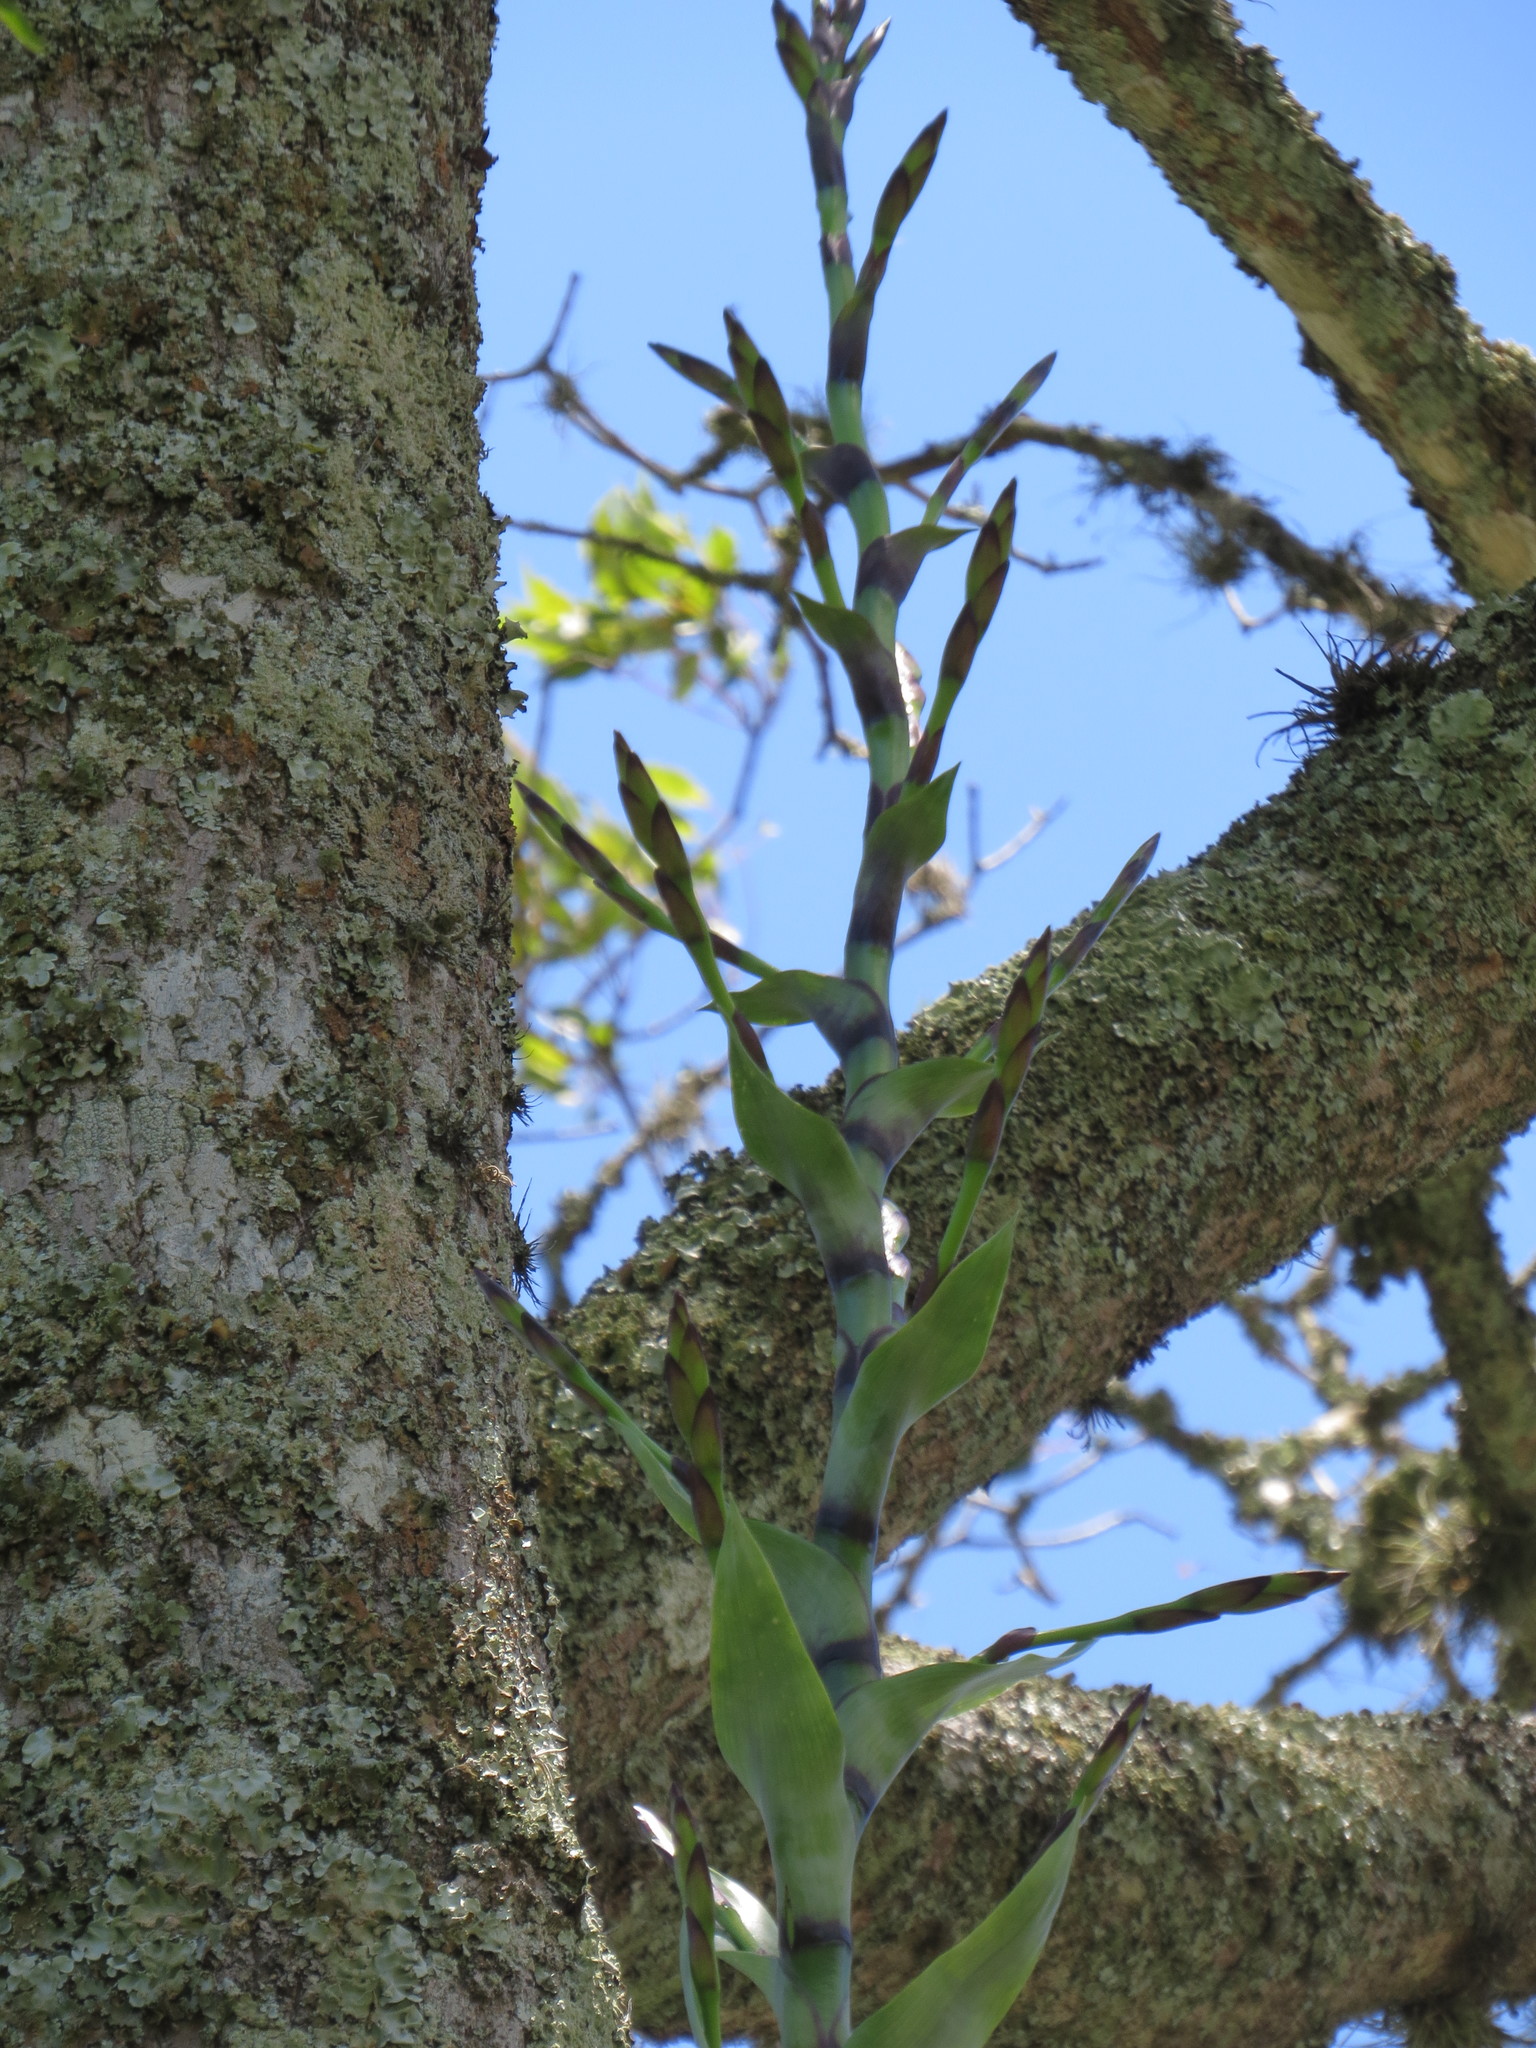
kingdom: Plantae
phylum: Tracheophyta
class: Liliopsida
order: Poales
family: Bromeliaceae
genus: Vriesea
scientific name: Vriesea gigantea
